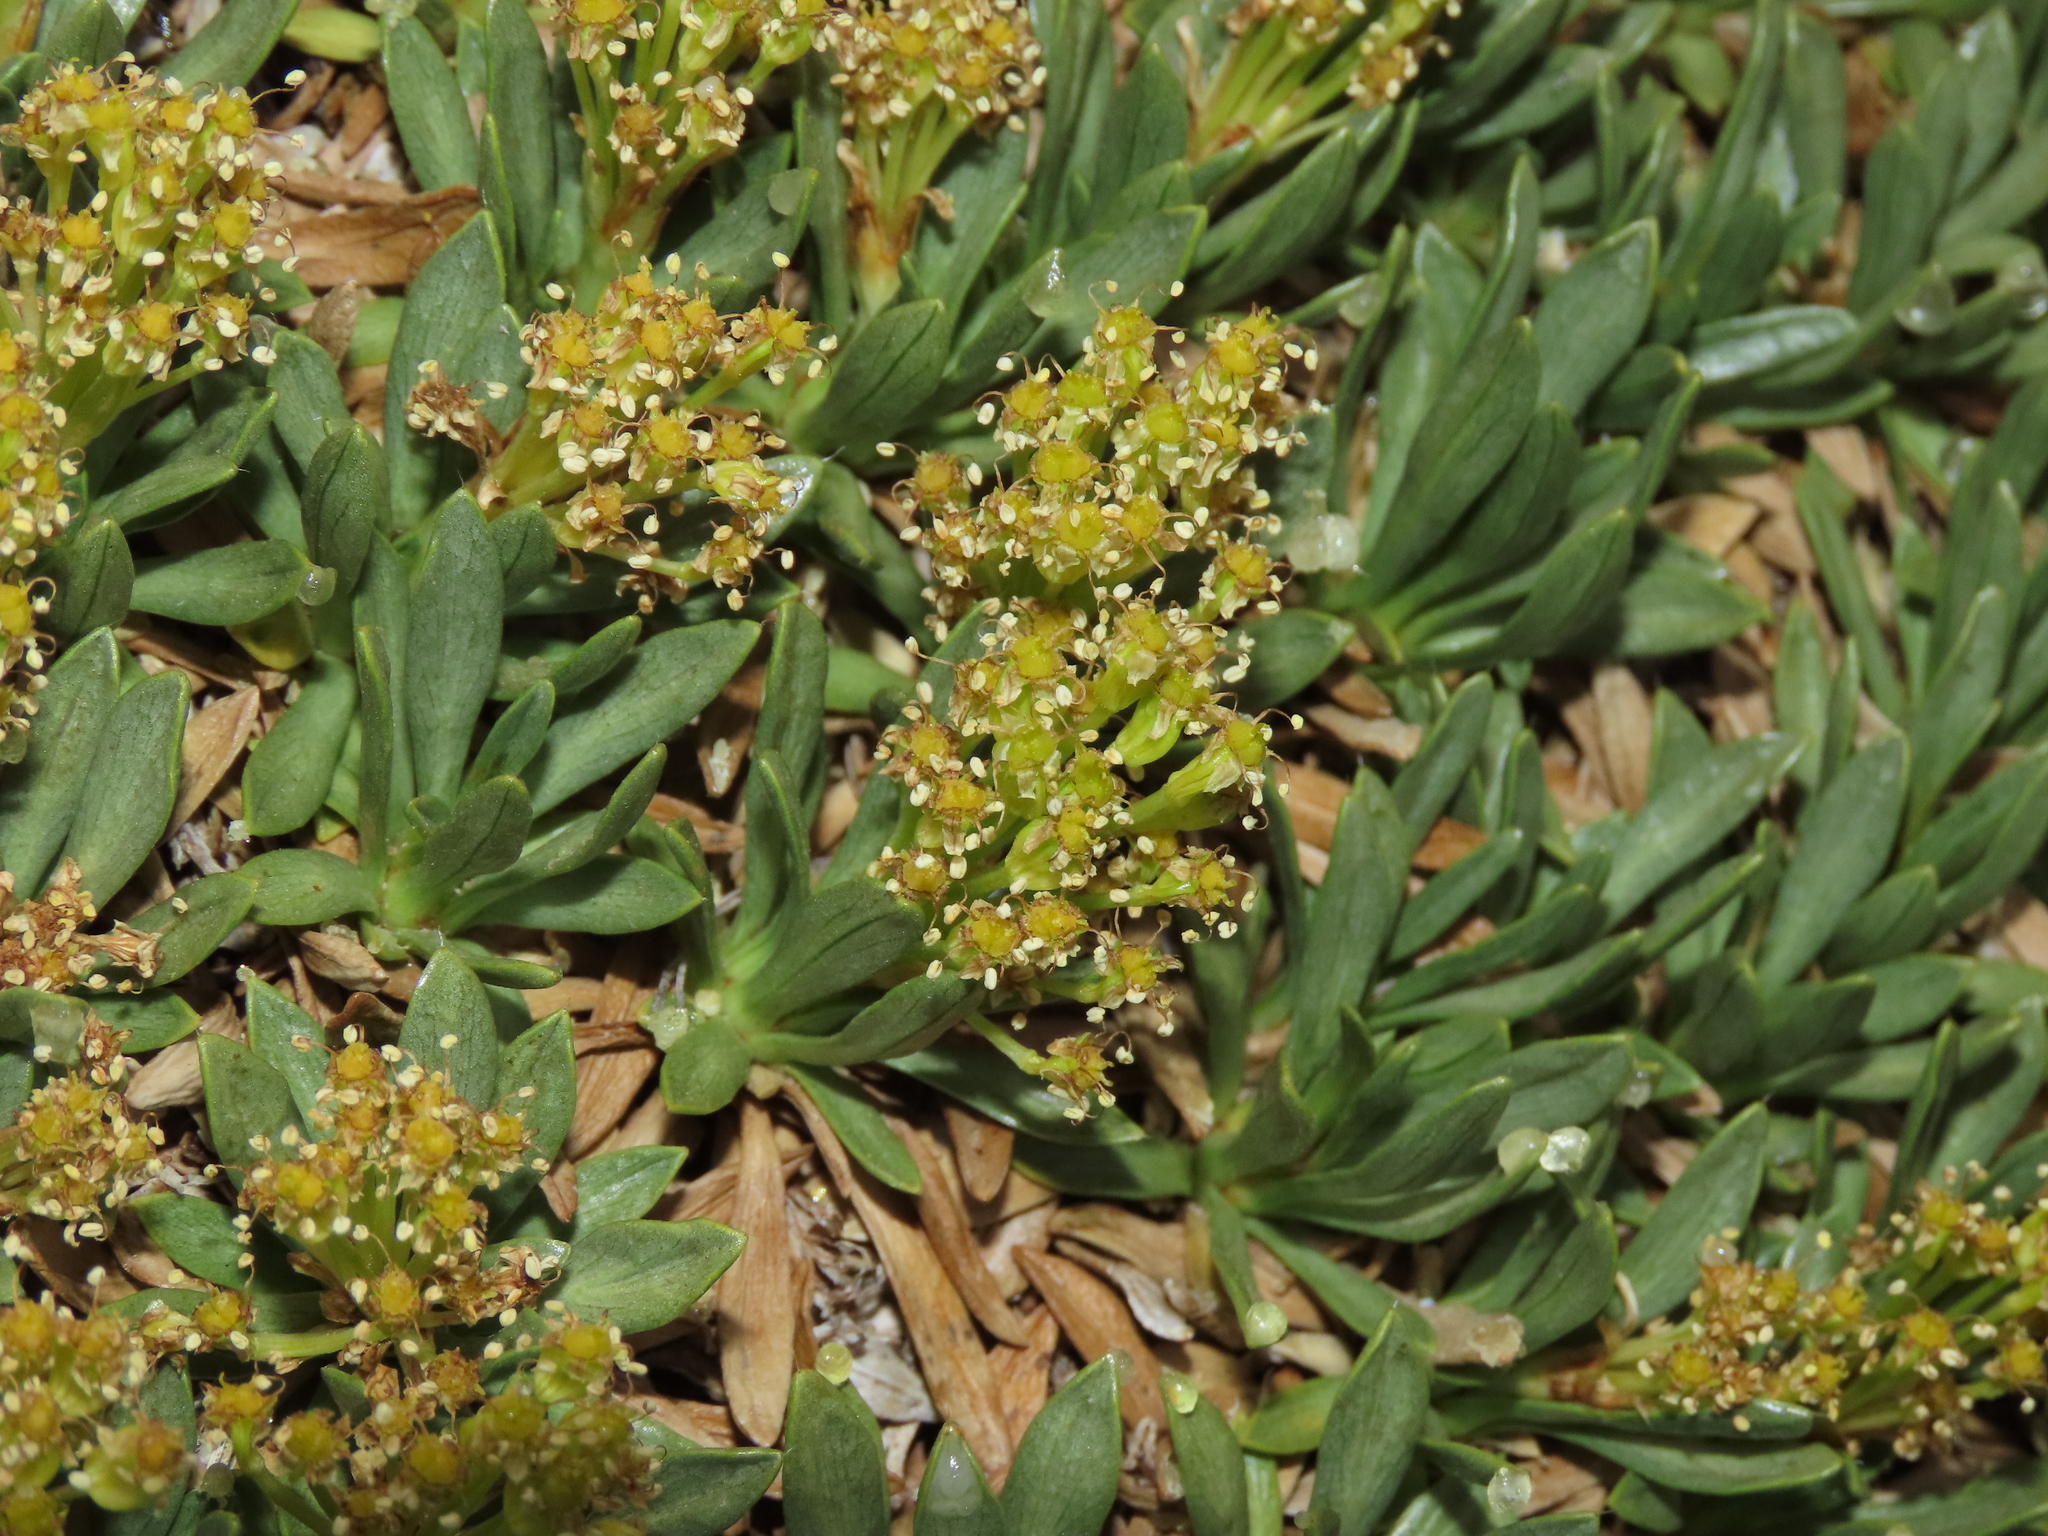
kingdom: Plantae
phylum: Tracheophyta
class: Magnoliopsida
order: Apiales
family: Apiaceae
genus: Azorella
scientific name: Azorella ruizii
